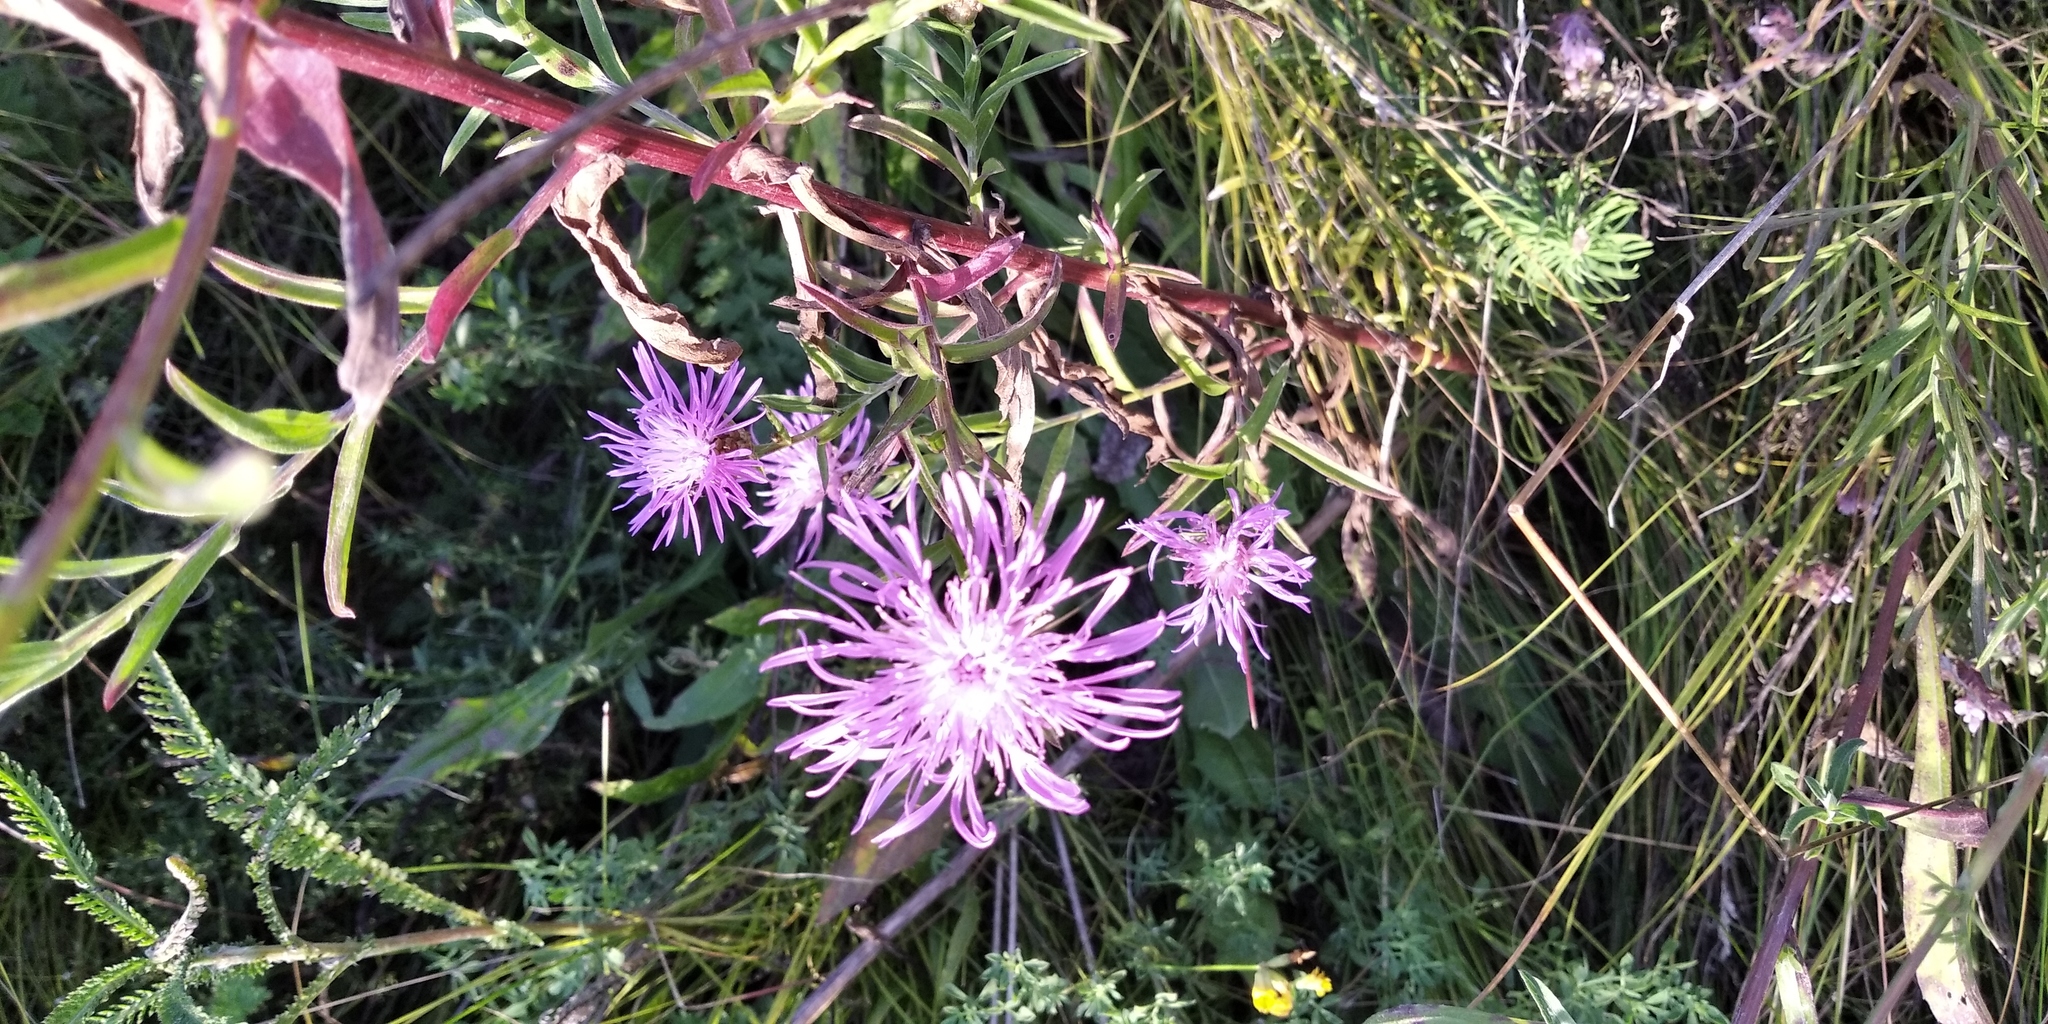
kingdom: Plantae
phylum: Tracheophyta
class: Magnoliopsida
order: Asterales
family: Asteraceae
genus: Centaurea
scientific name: Centaurea jacea
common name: Brown knapweed
